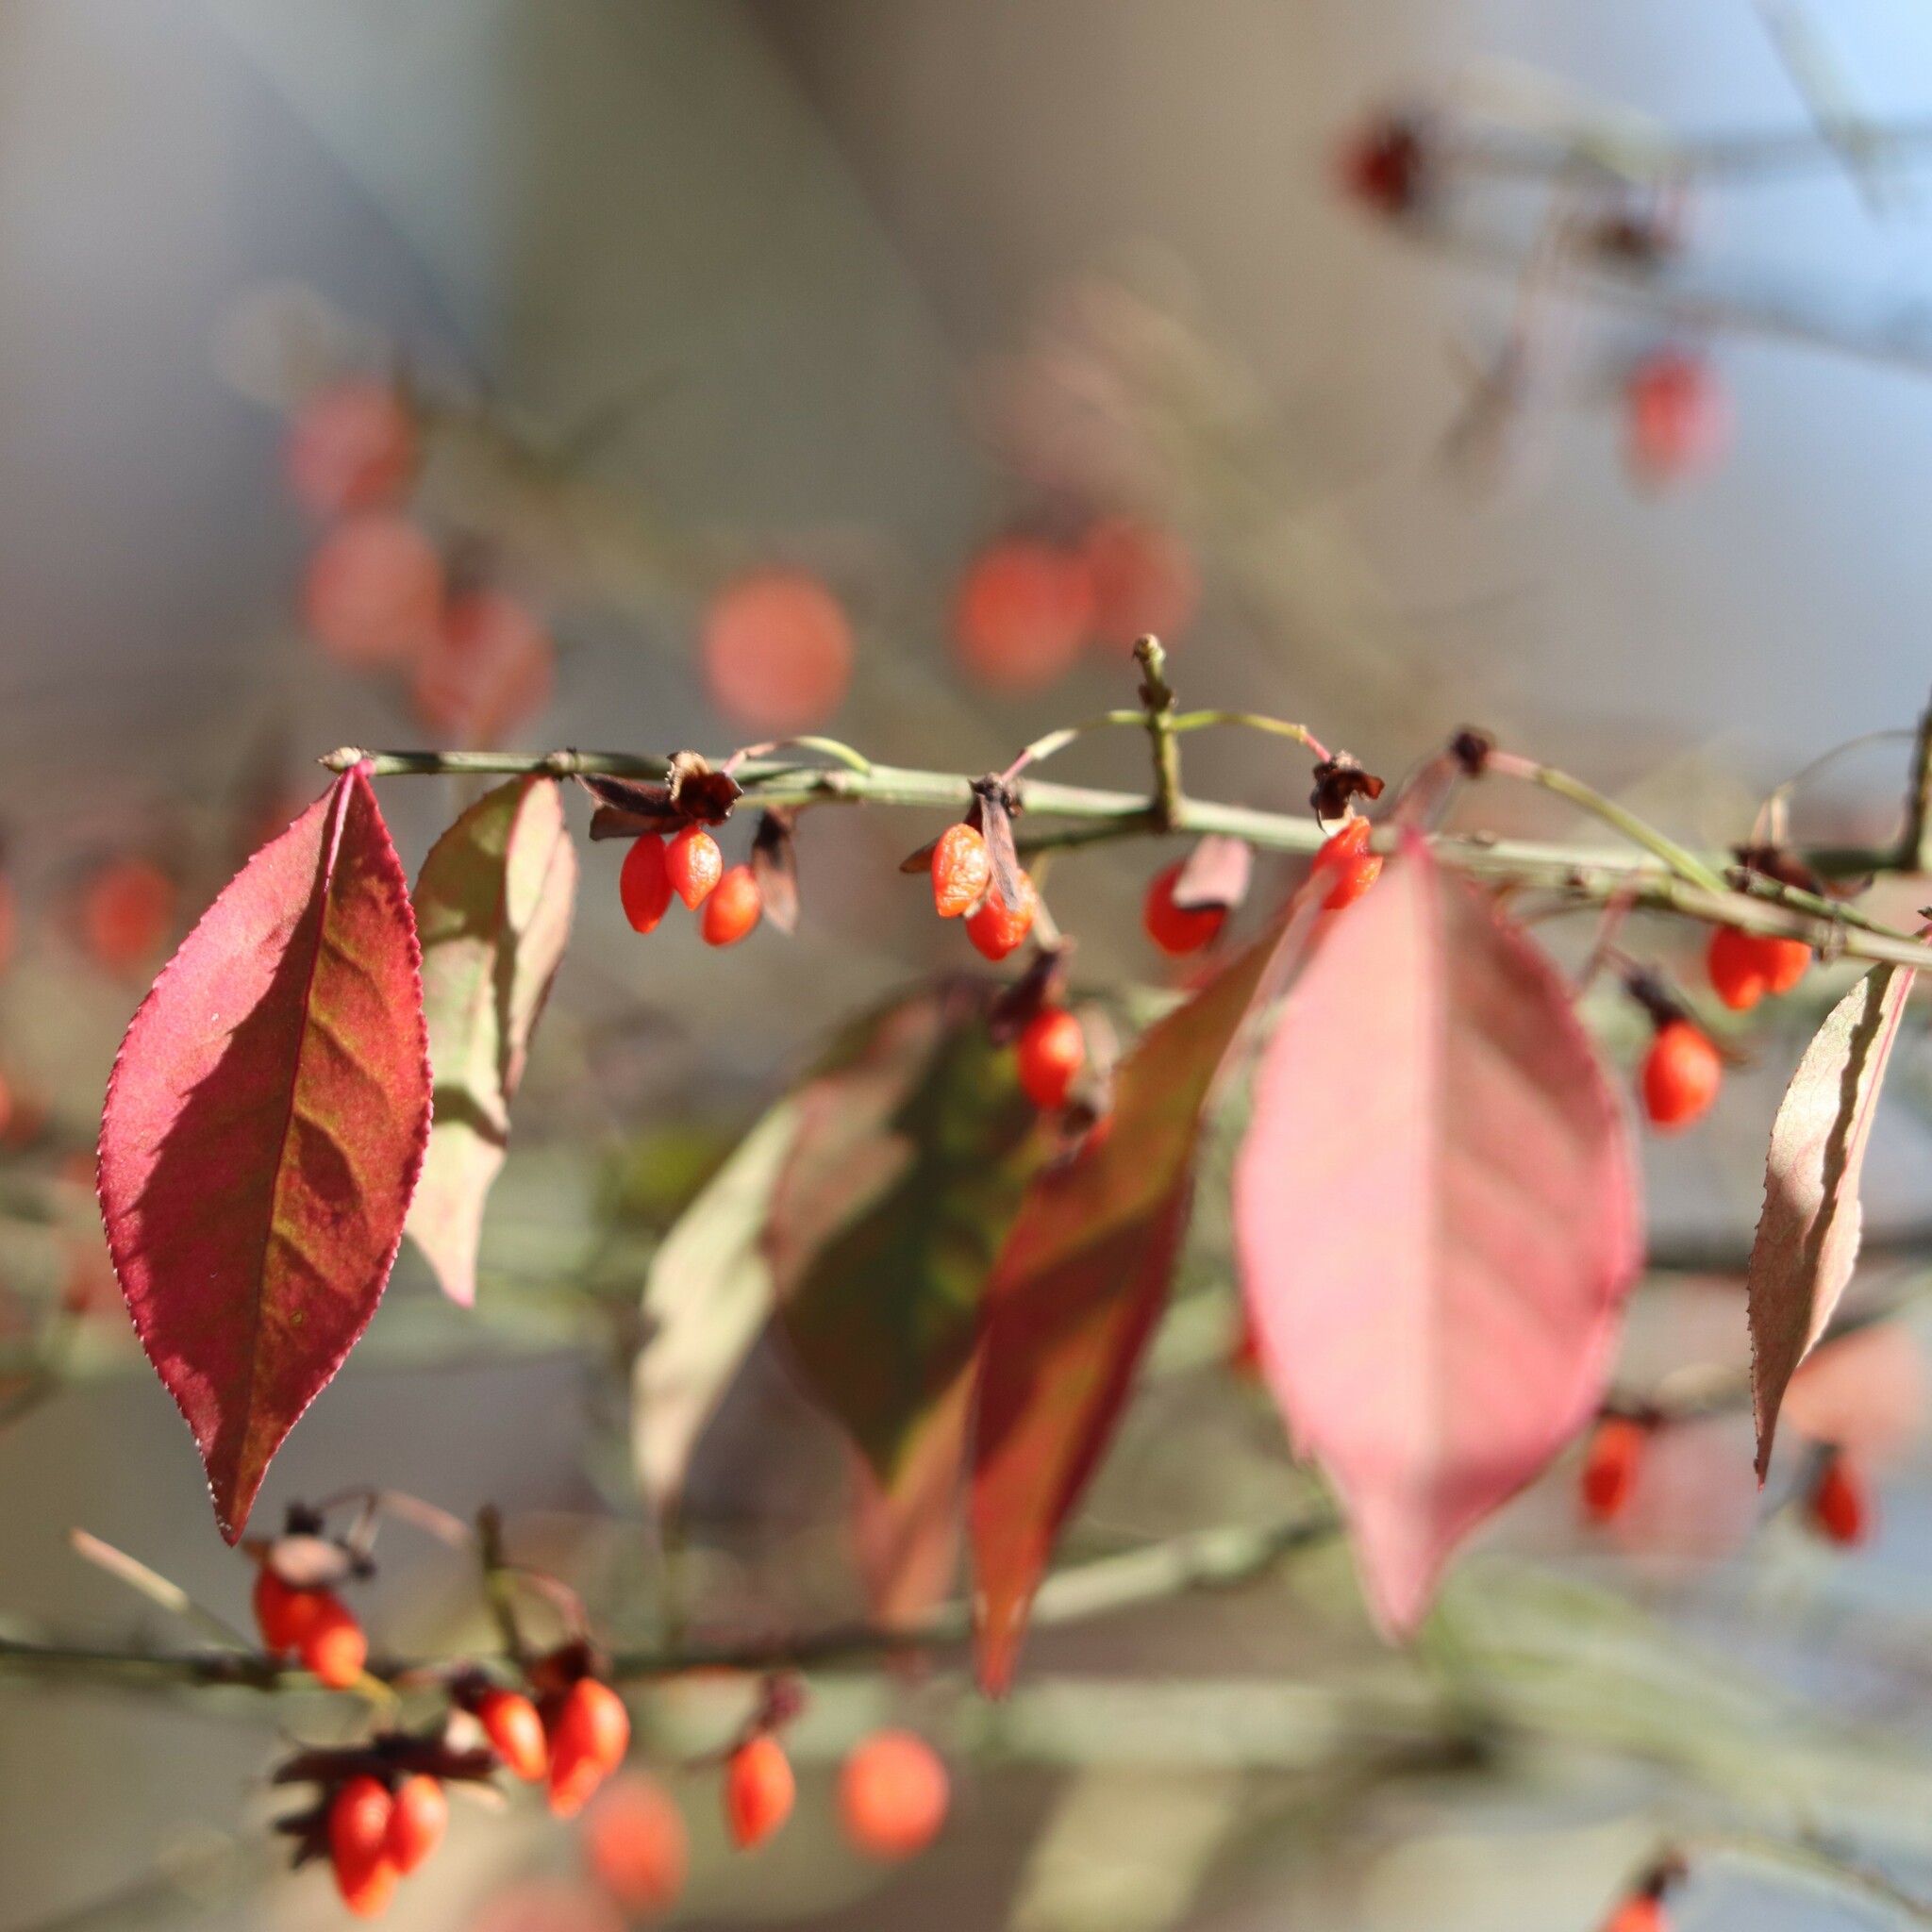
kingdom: Plantae
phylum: Tracheophyta
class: Magnoliopsida
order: Celastrales
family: Celastraceae
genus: Euonymus
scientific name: Euonymus alatus
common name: Winged euonymus
